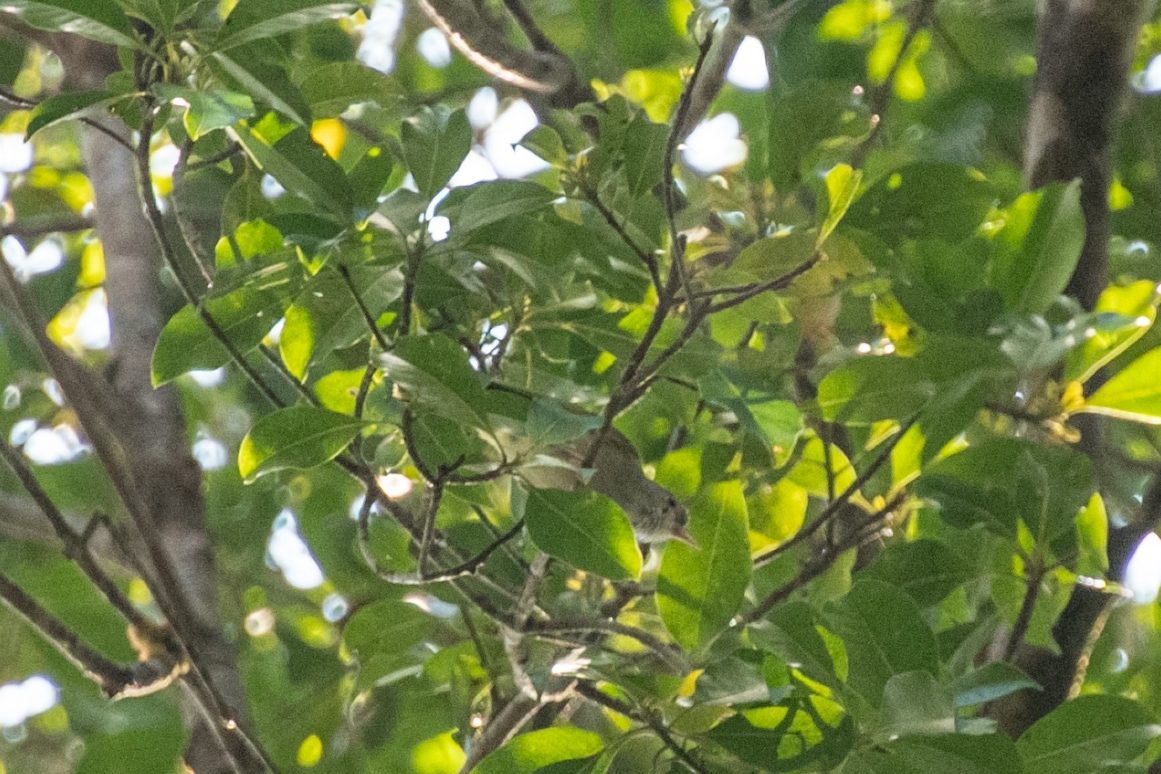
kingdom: Animalia
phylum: Chordata
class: Aves
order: Passeriformes
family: Vireonidae
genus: Erpornis
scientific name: Erpornis zantholeuca
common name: White-bellied erpornis
